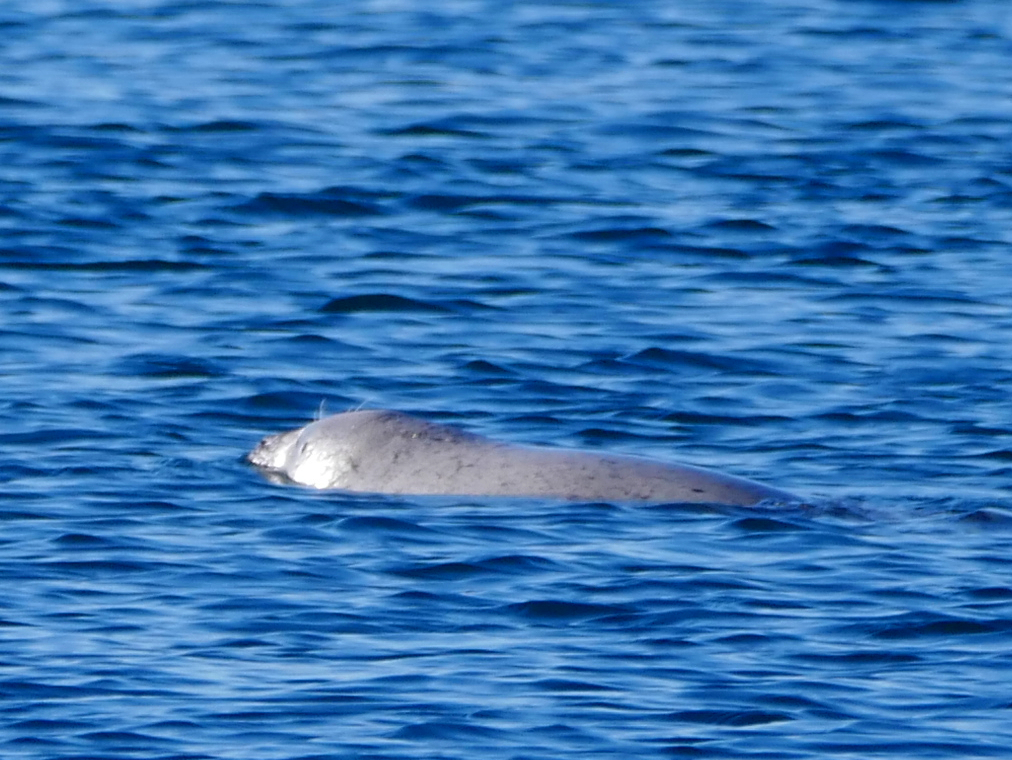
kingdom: Animalia
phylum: Chordata
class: Mammalia
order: Carnivora
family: Phocidae
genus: Phoca
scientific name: Phoca vitulina
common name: Harbor seal
